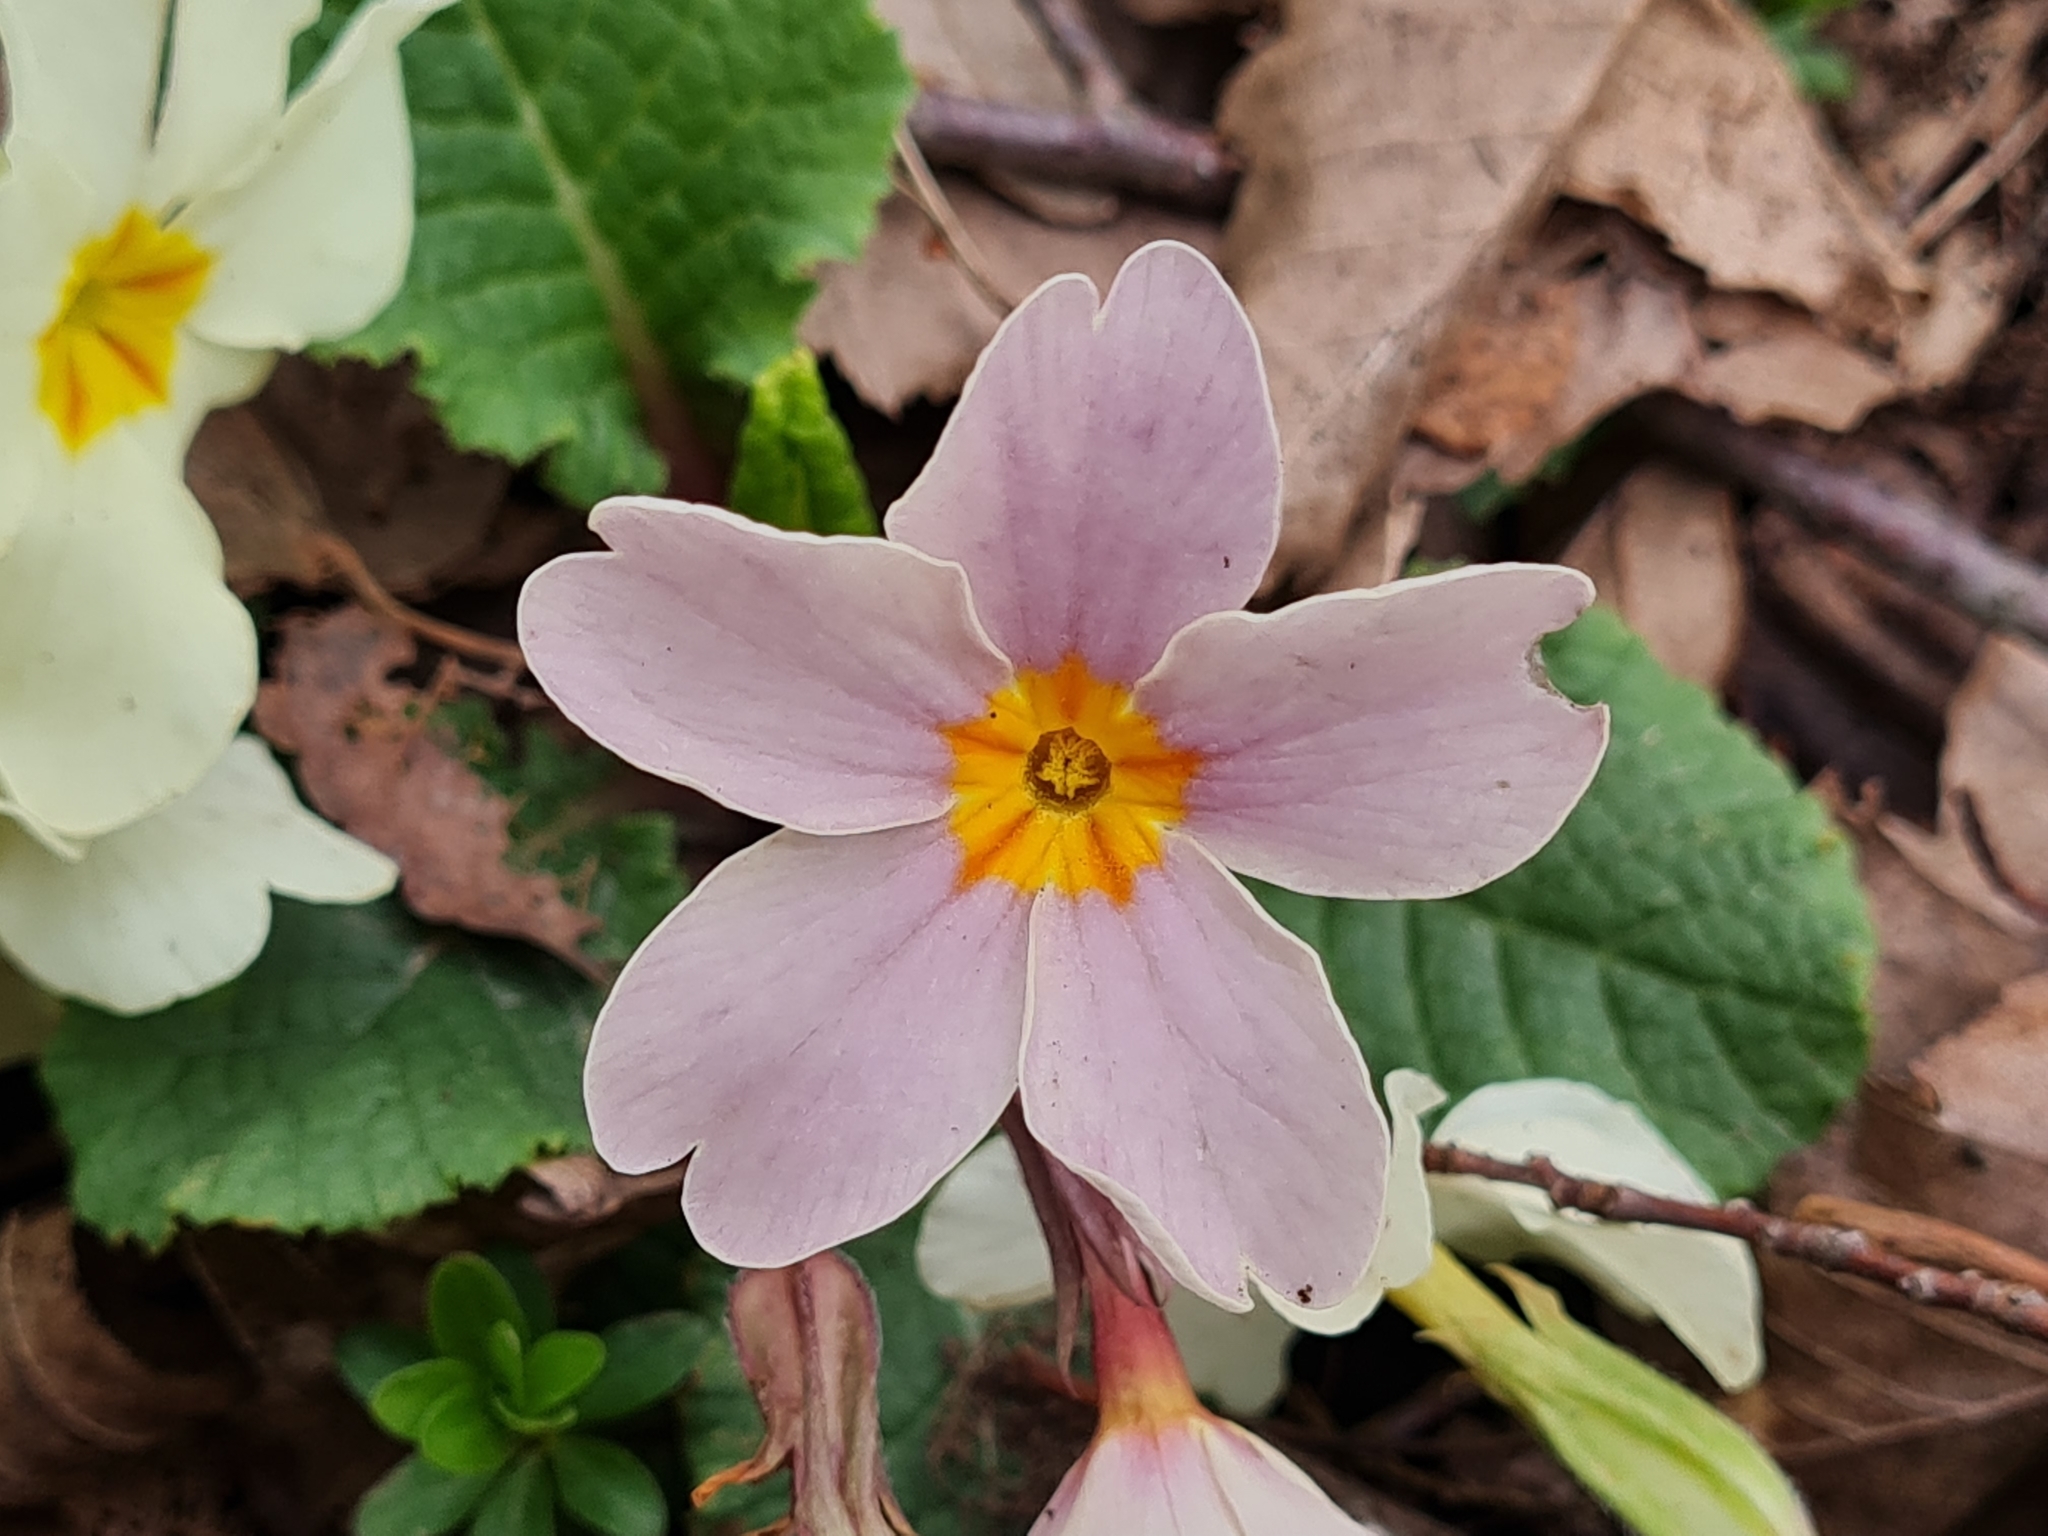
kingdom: Plantae
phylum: Tracheophyta
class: Magnoliopsida
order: Ericales
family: Primulaceae
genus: Primula
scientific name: Primula vulgaris
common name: Primrose
